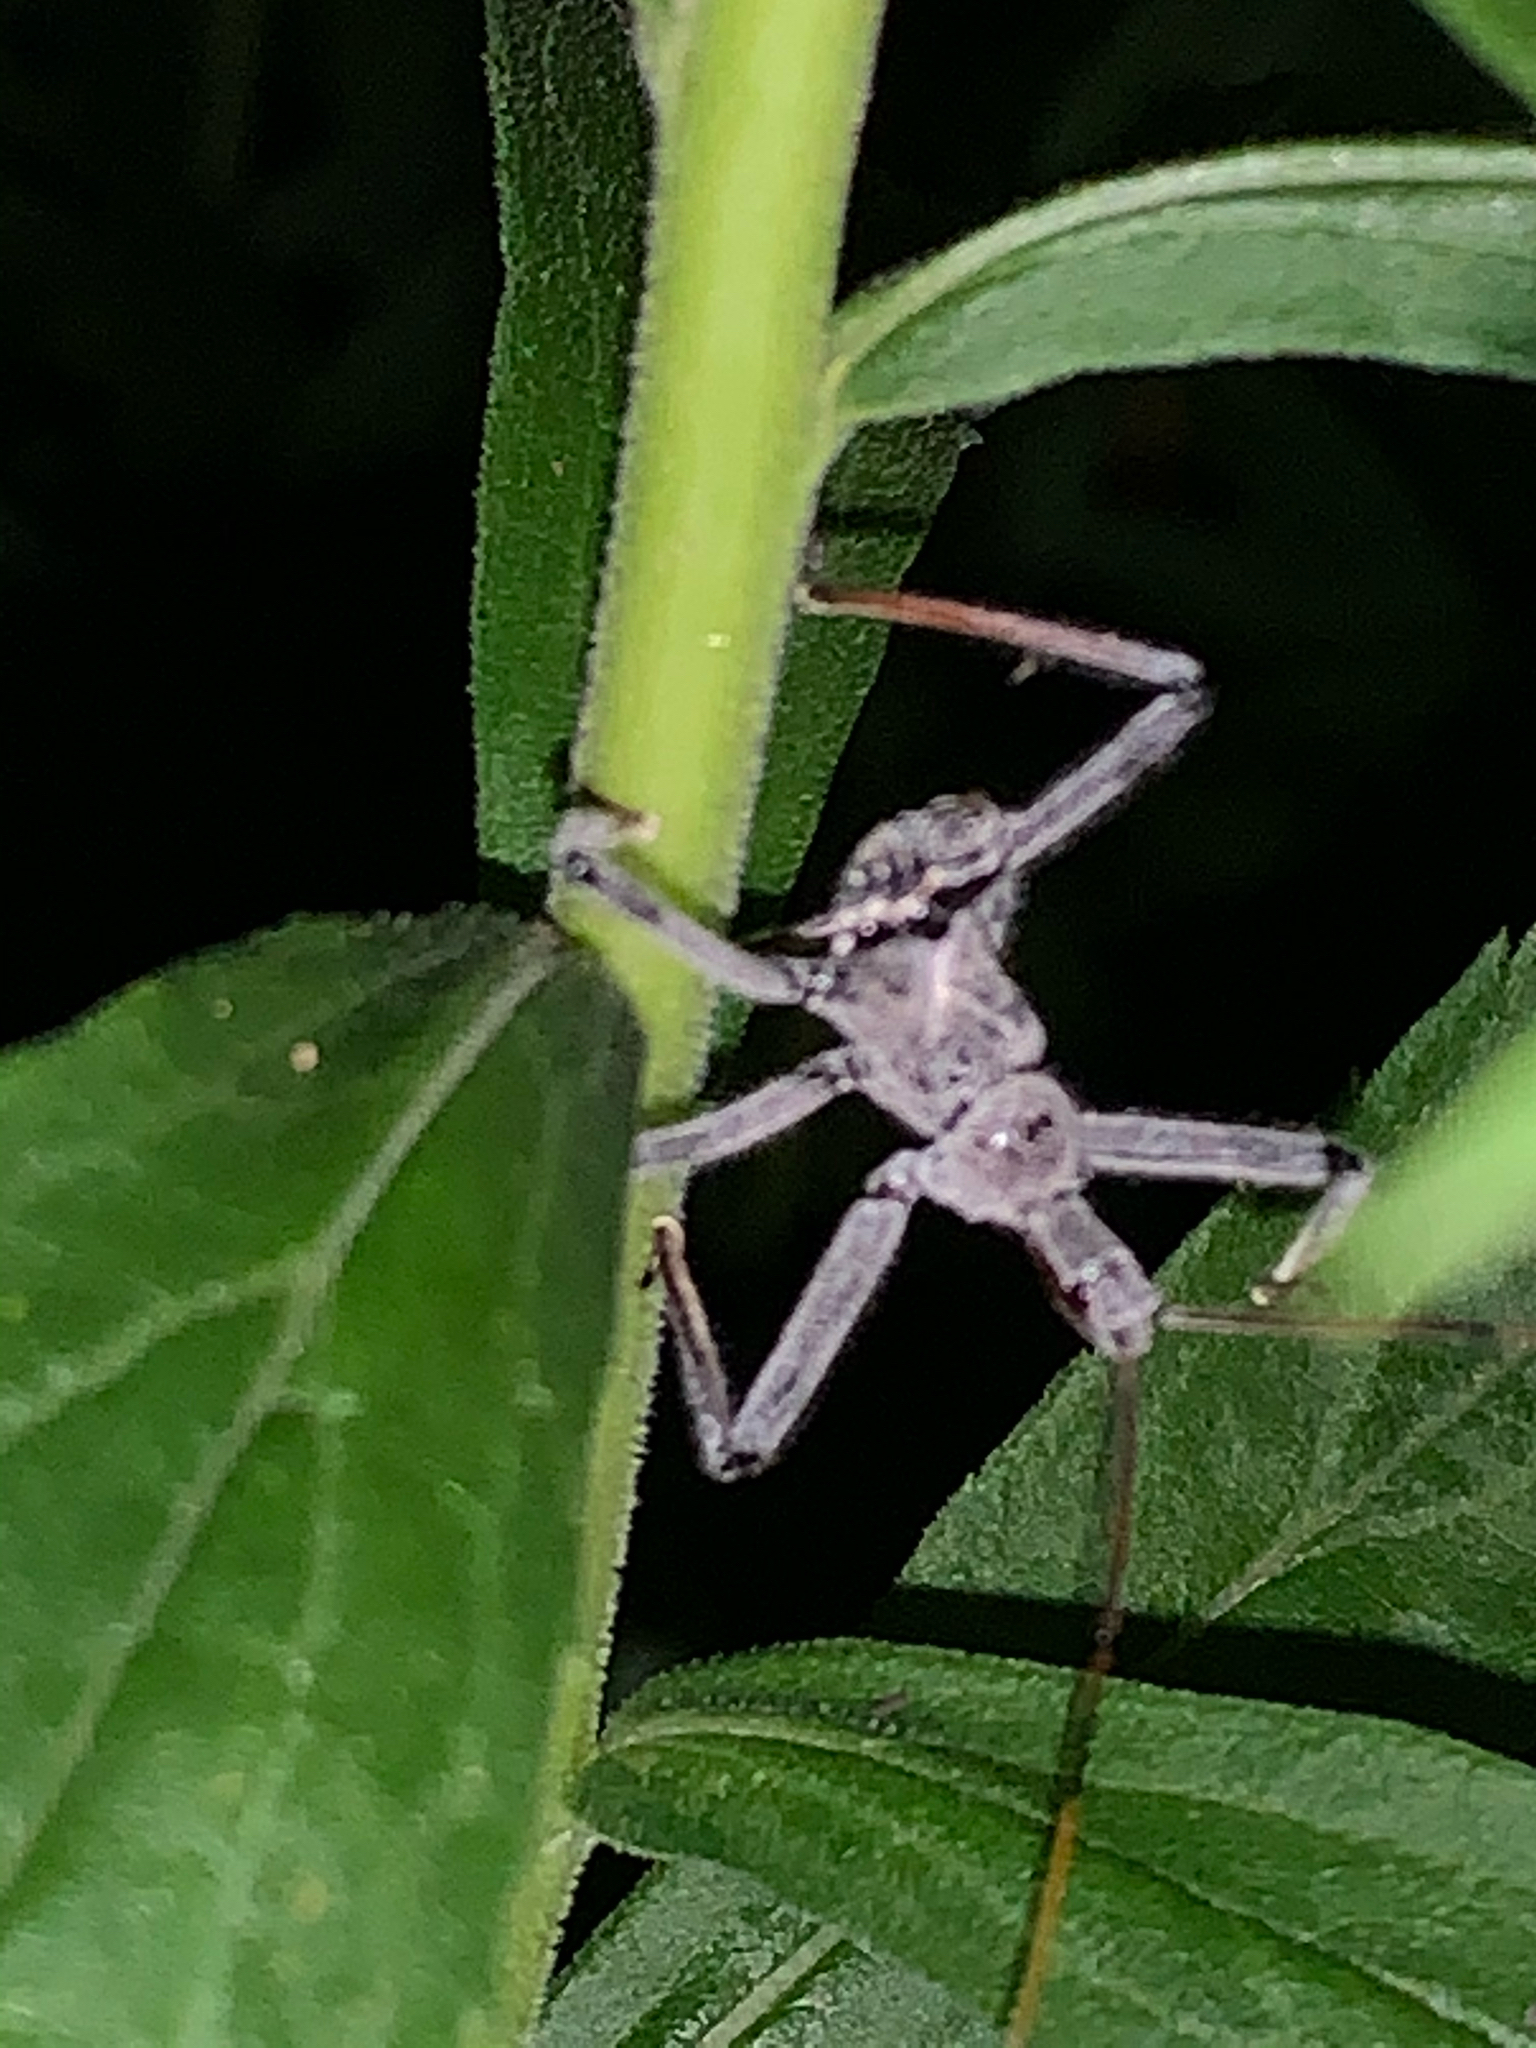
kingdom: Animalia
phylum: Arthropoda
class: Insecta
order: Hemiptera
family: Reduviidae
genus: Arilus
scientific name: Arilus cristatus
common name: North american wheel bug
